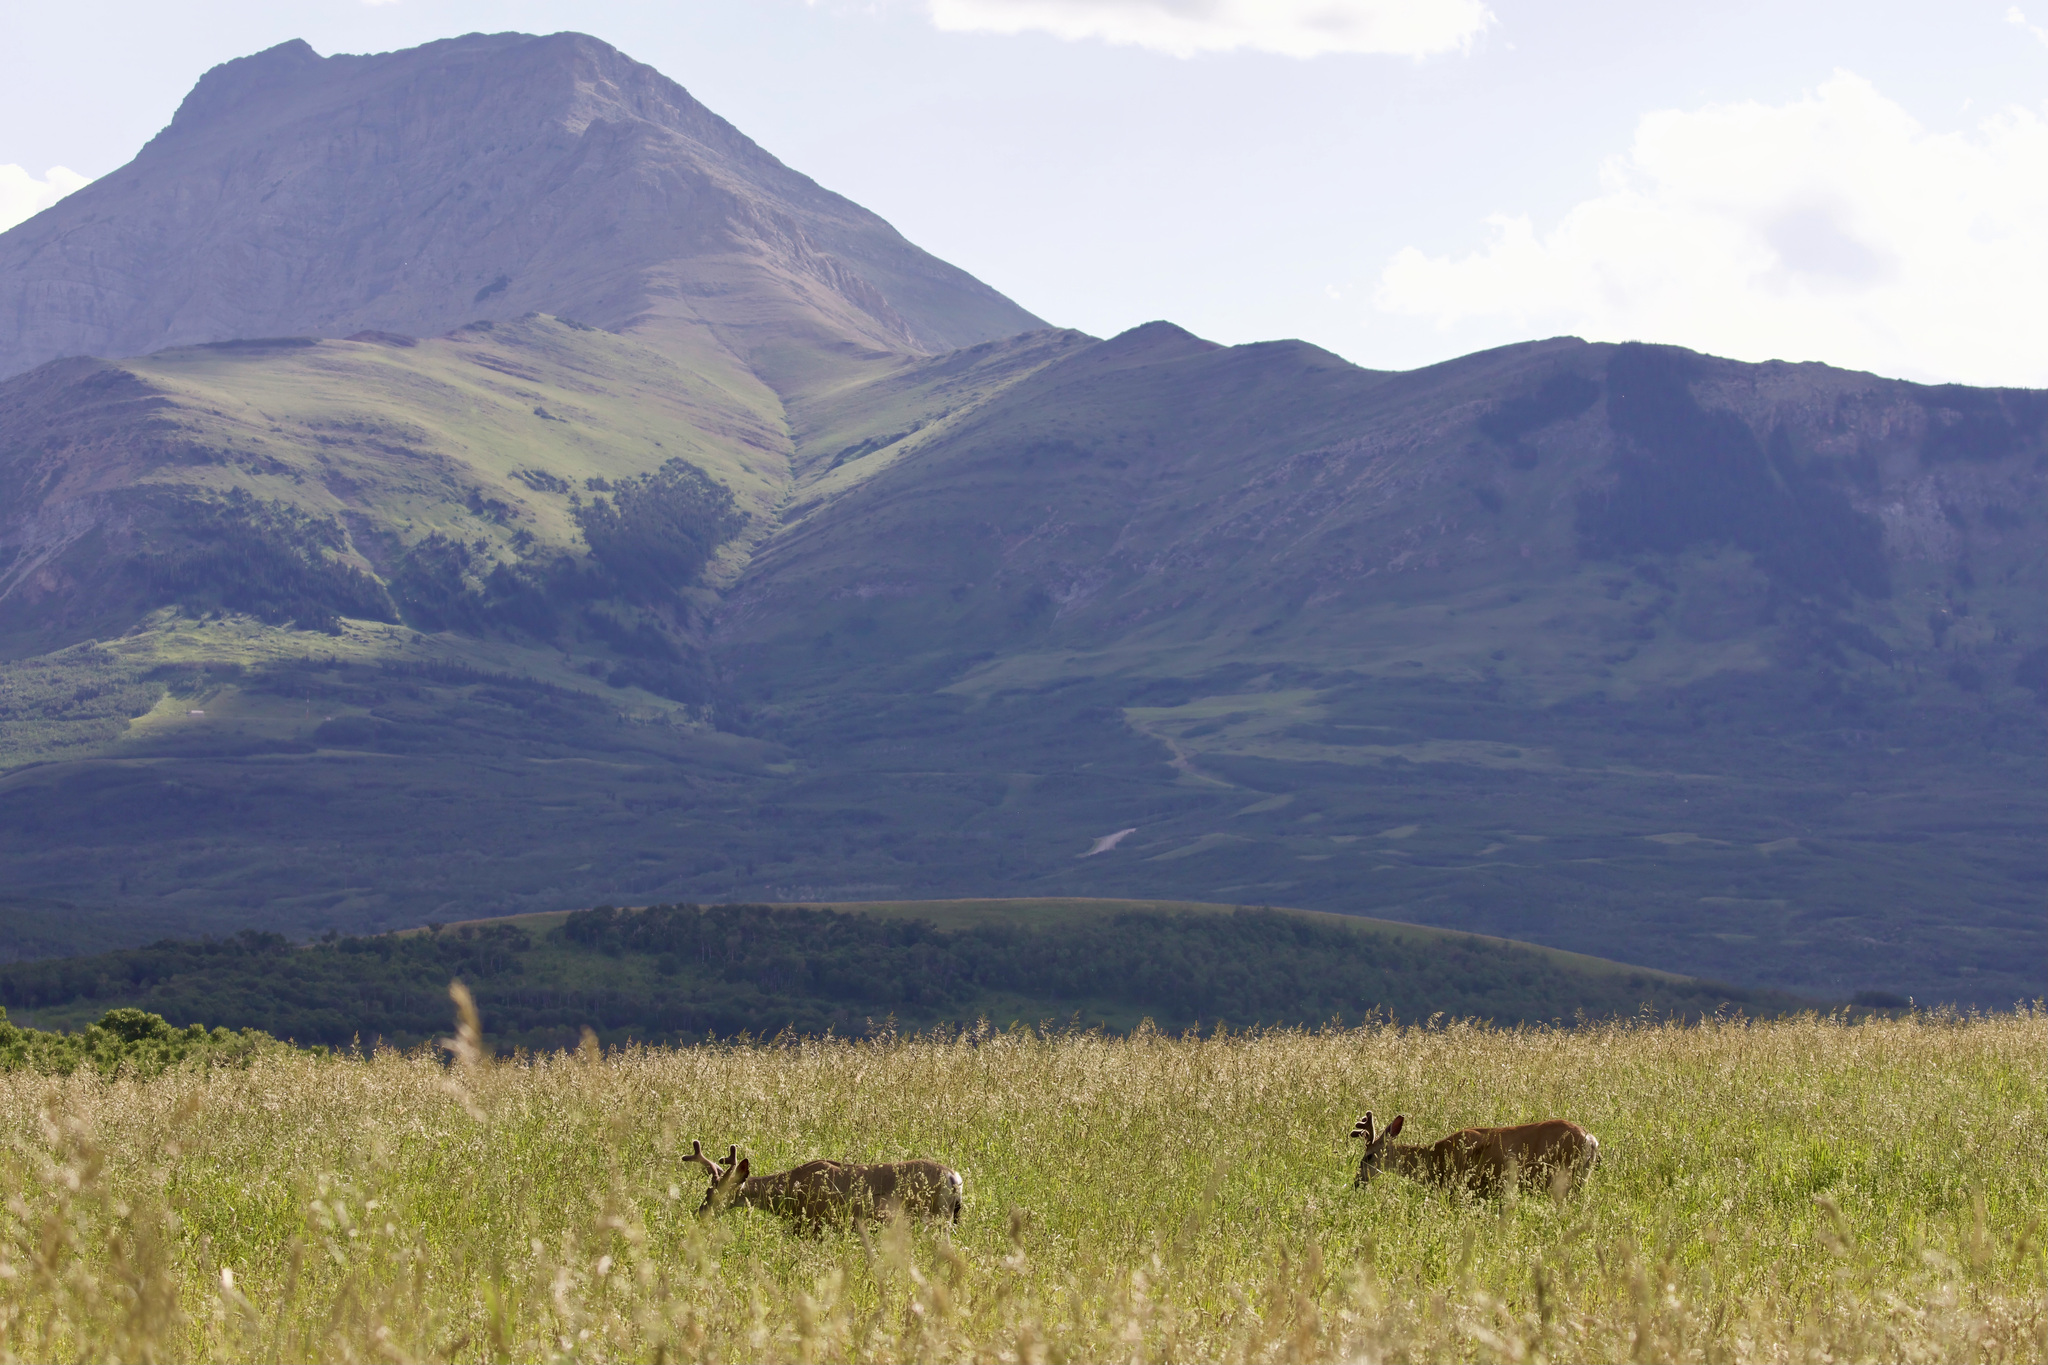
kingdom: Animalia
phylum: Chordata
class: Mammalia
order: Artiodactyla
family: Cervidae
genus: Odocoileus
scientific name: Odocoileus hemionus
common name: Mule deer
